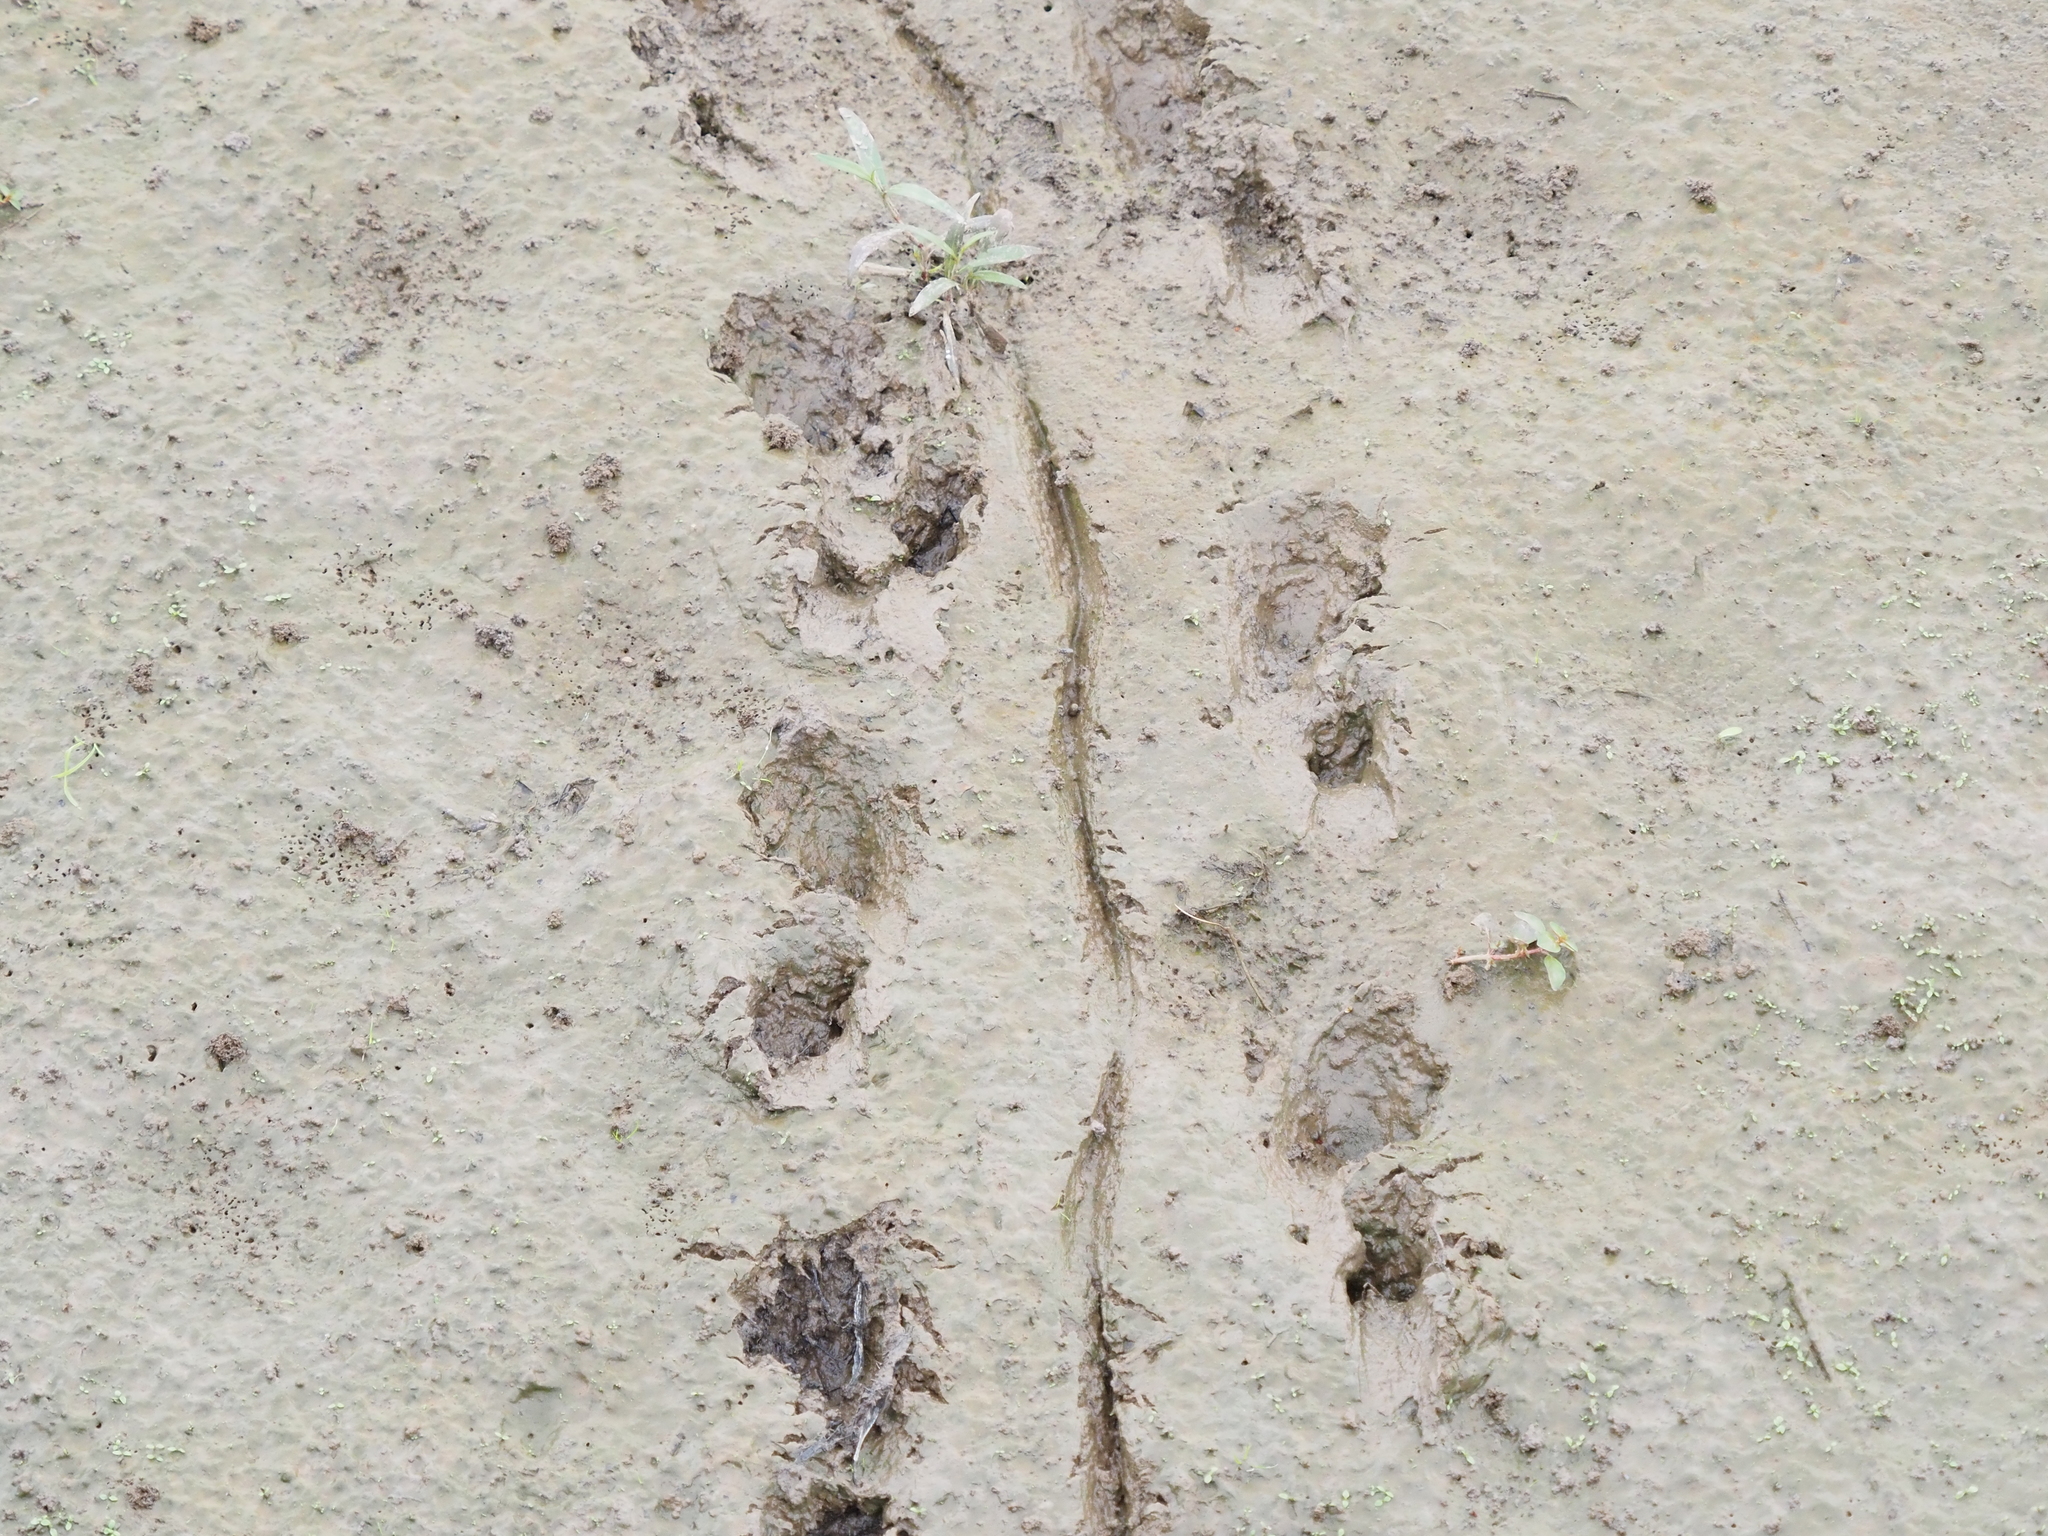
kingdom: Animalia
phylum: Chordata
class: Testudines
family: Chelydridae
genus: Chelydra
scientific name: Chelydra serpentina
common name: Common snapping turtle
